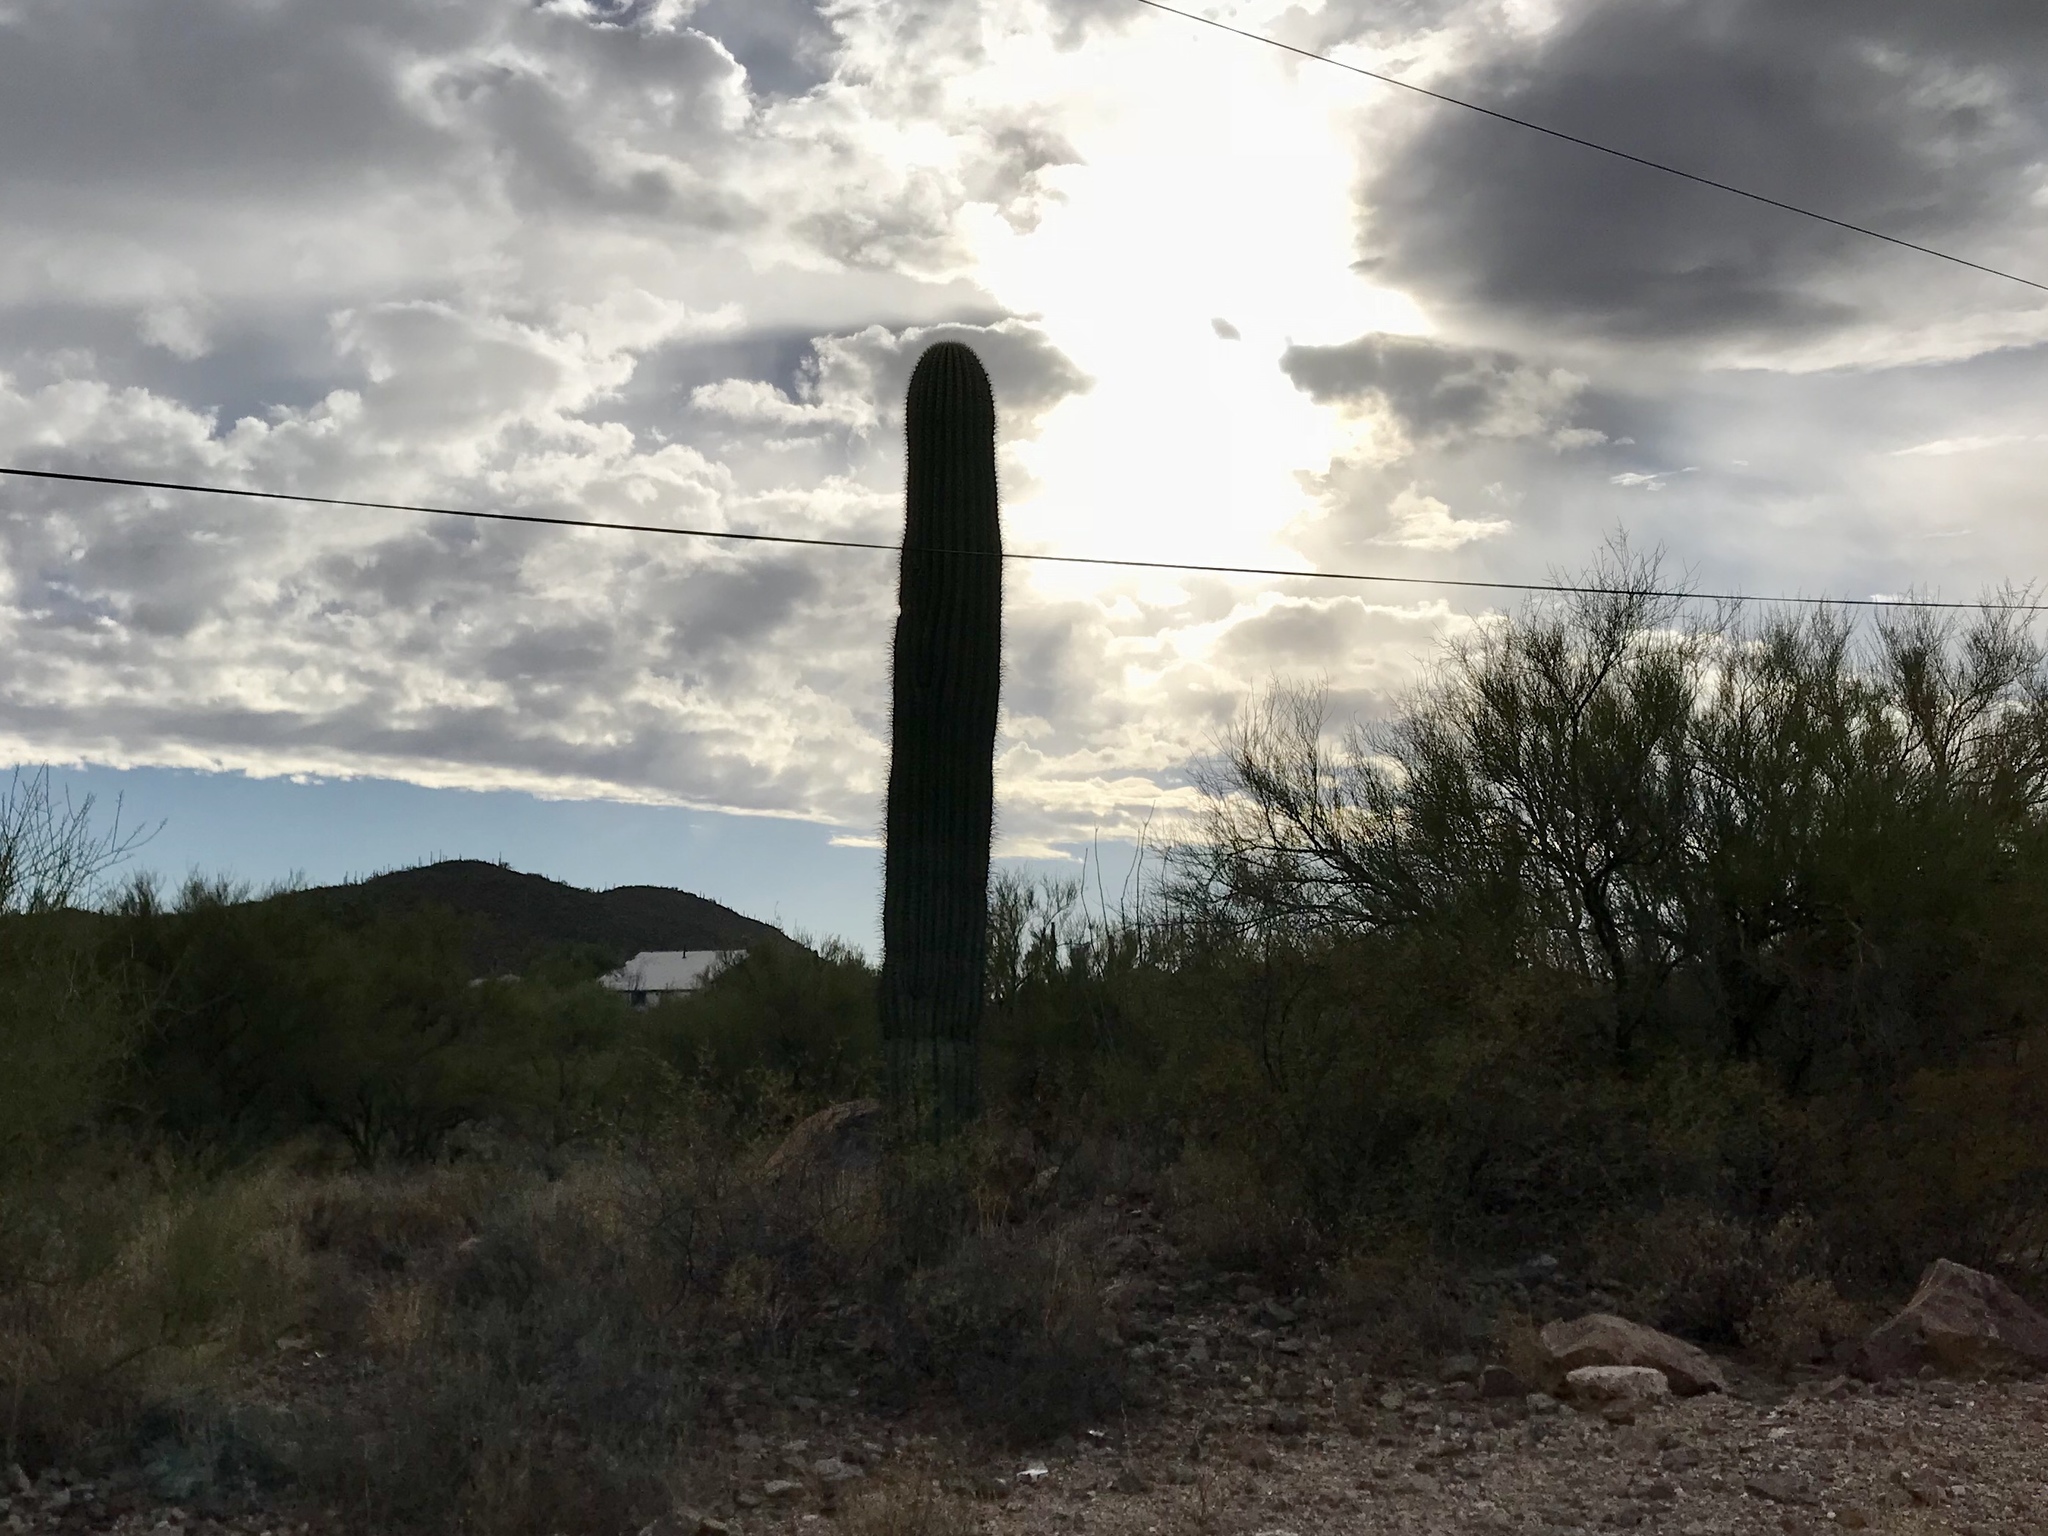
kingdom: Plantae
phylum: Tracheophyta
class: Magnoliopsida
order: Caryophyllales
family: Cactaceae
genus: Carnegiea
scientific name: Carnegiea gigantea
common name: Saguaro
